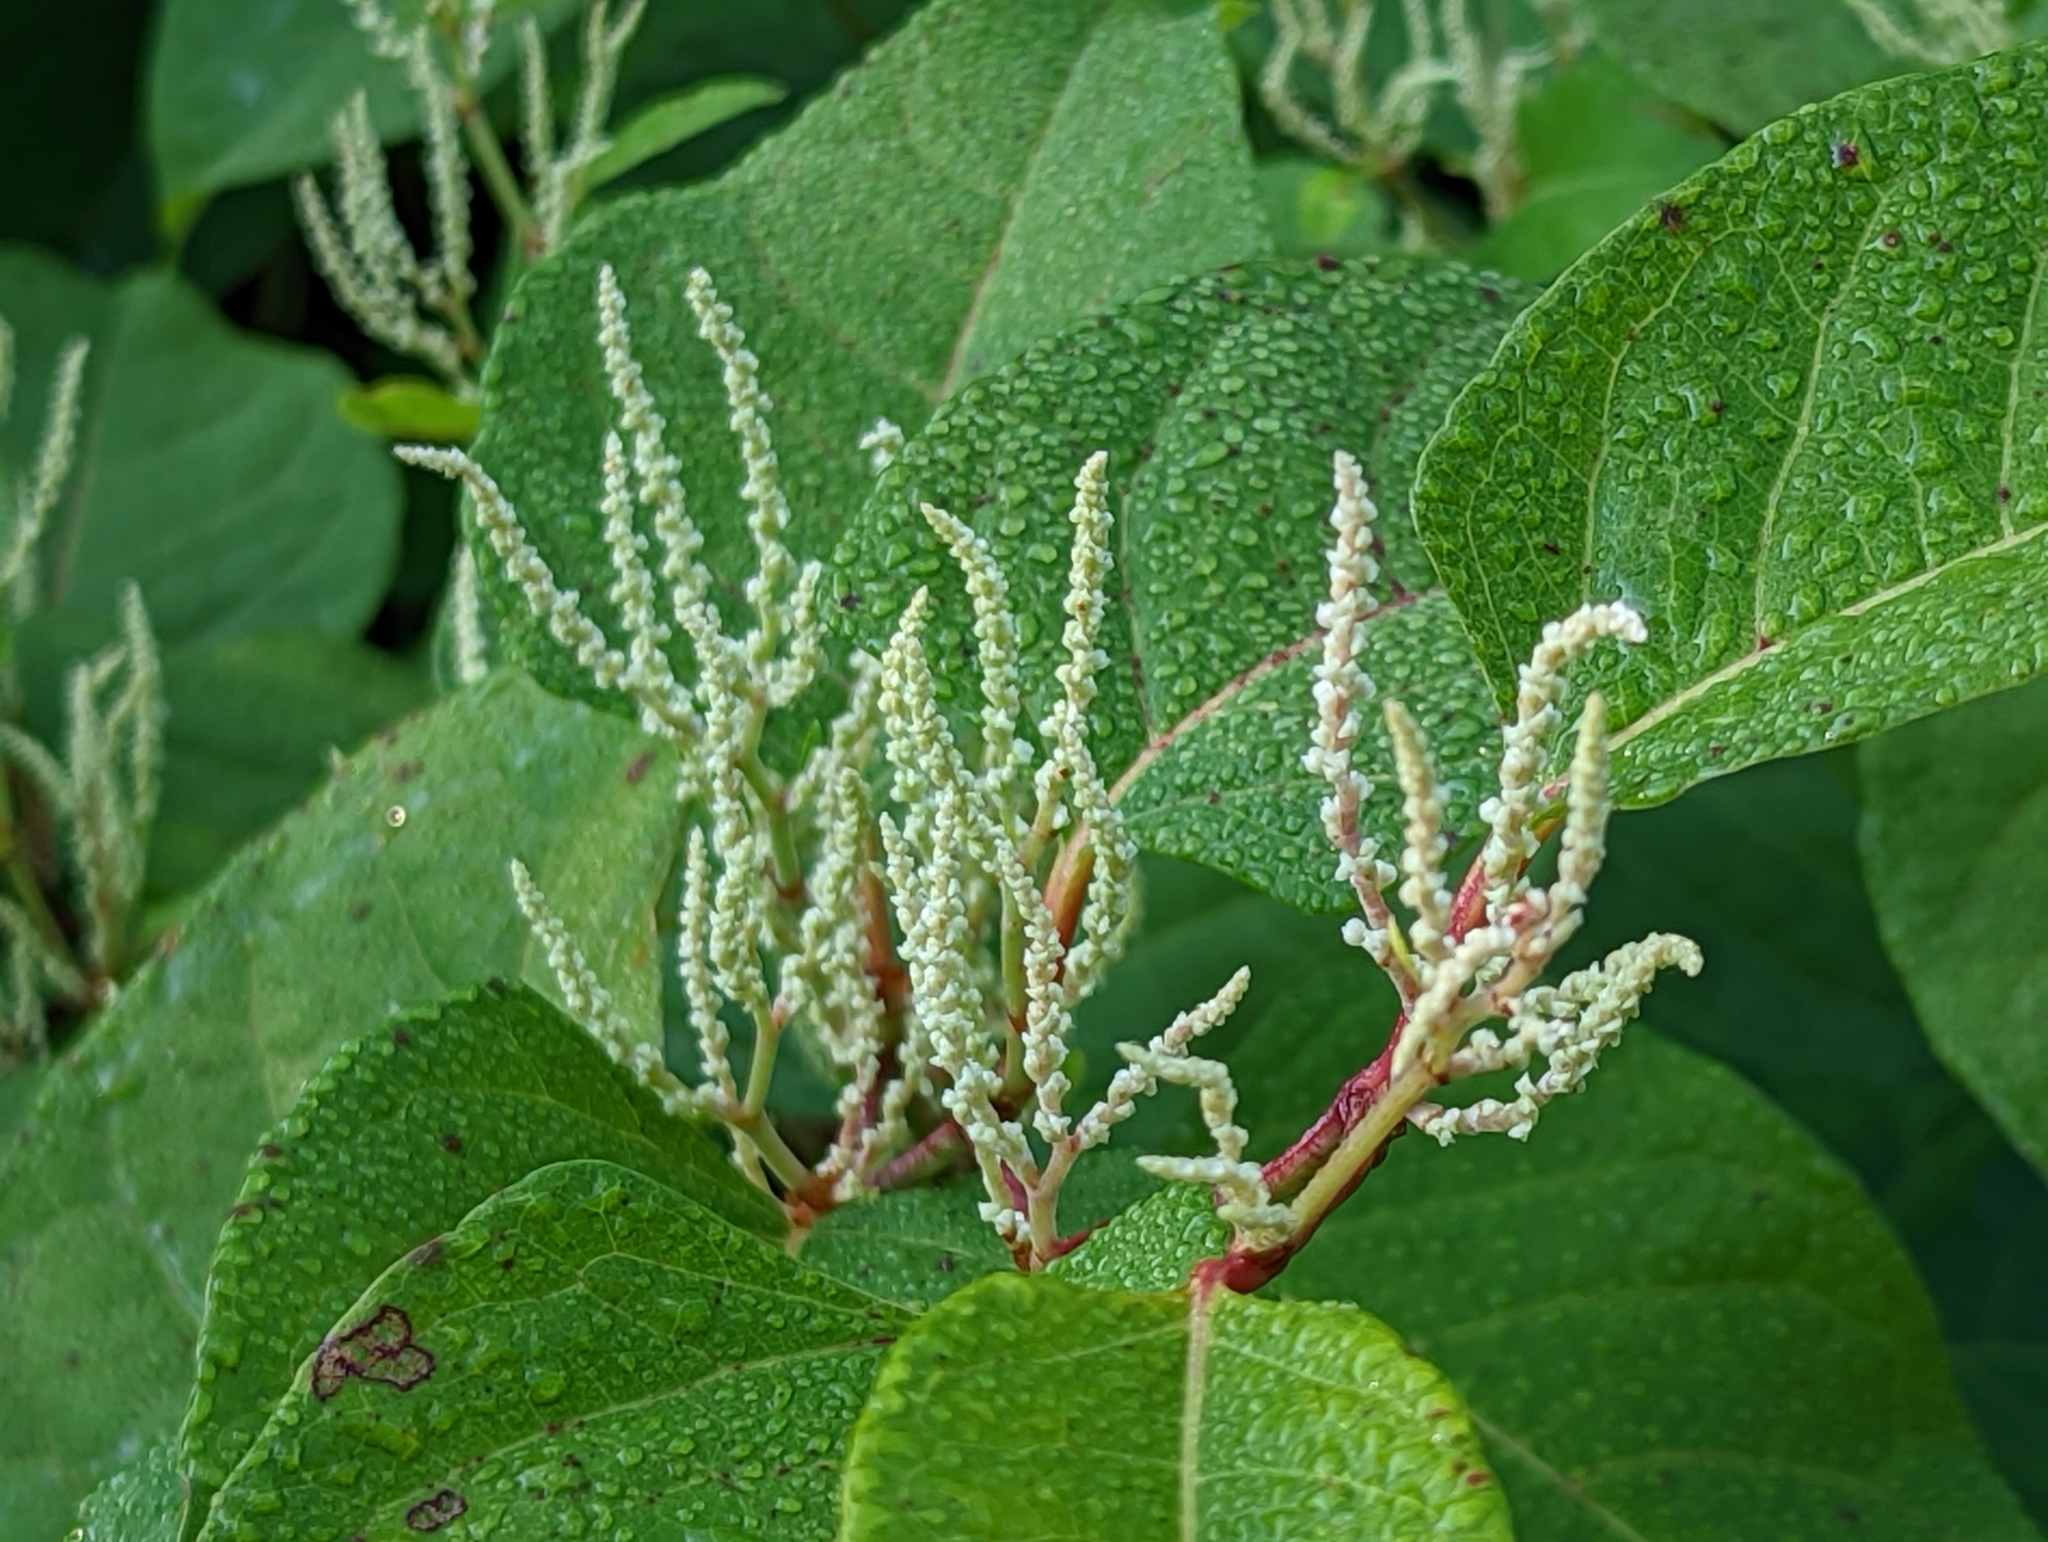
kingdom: Plantae
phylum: Tracheophyta
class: Magnoliopsida
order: Caryophyllales
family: Polygonaceae
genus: Reynoutria
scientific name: Reynoutria japonica
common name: Japanese knotweed
